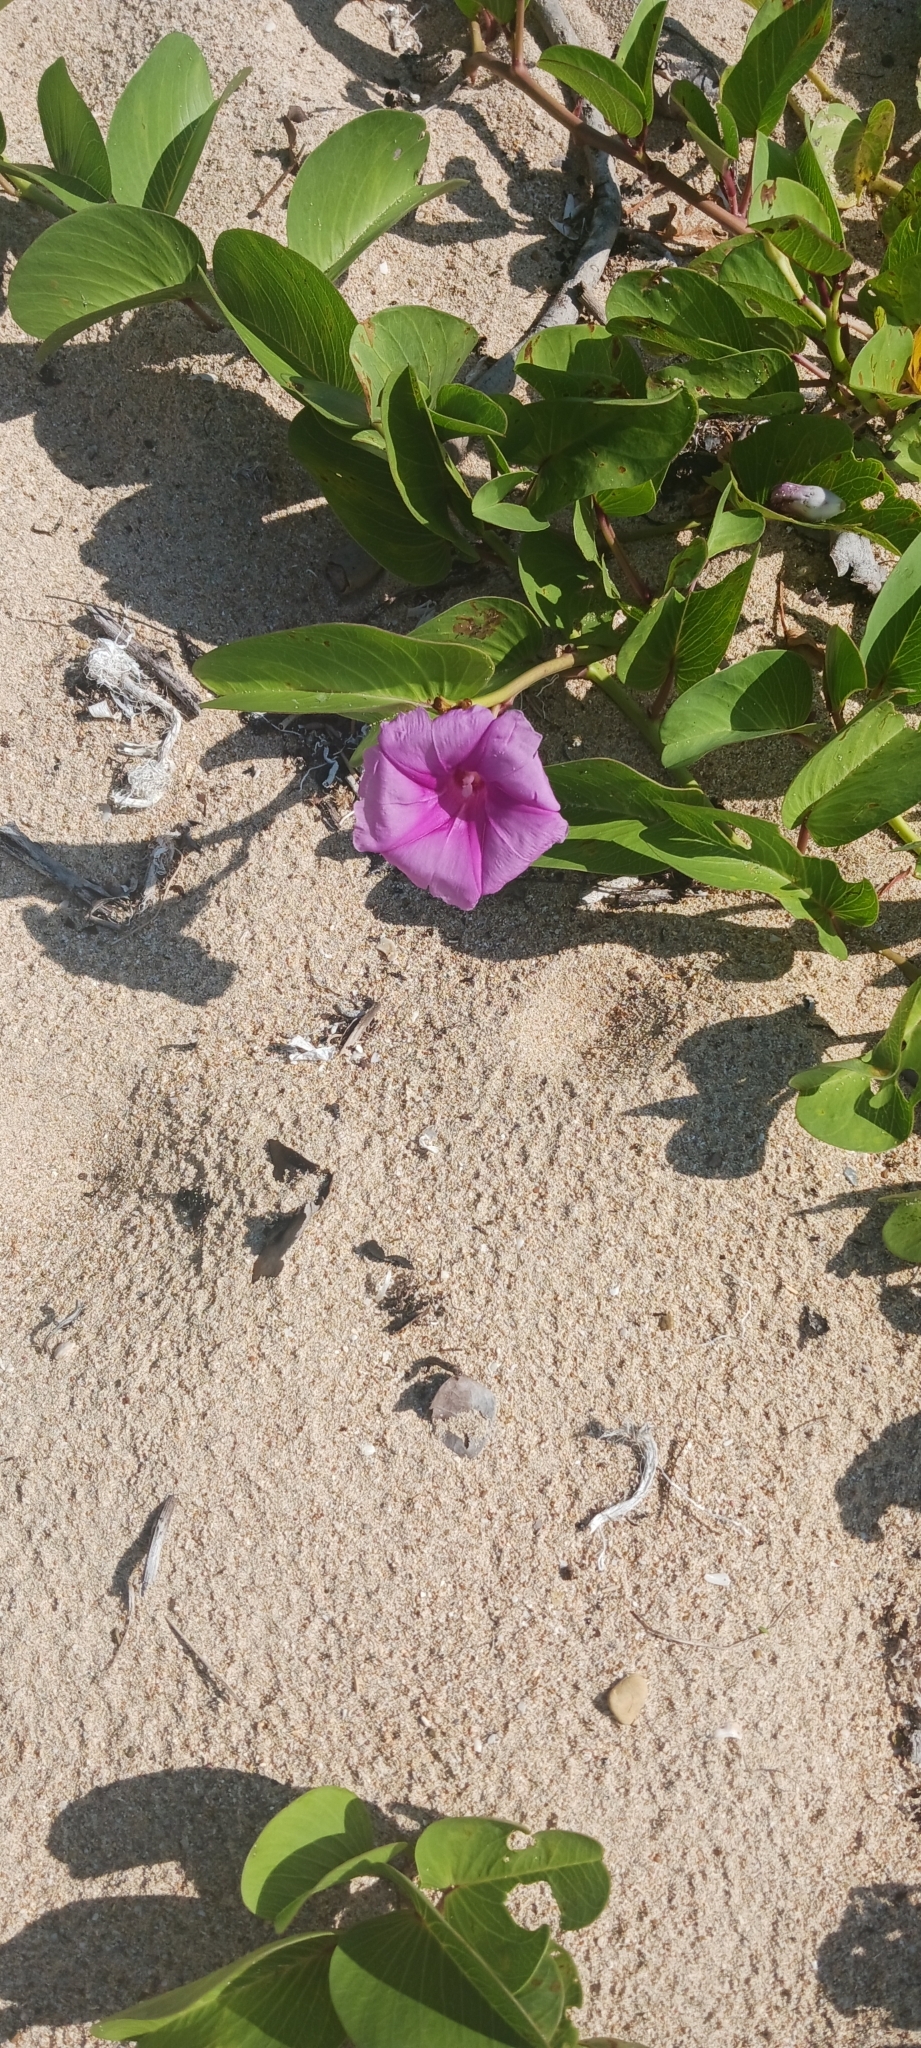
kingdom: Plantae
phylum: Tracheophyta
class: Magnoliopsida
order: Solanales
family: Convolvulaceae
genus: Ipomoea
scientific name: Ipomoea pes-caprae
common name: Beach morning glory
